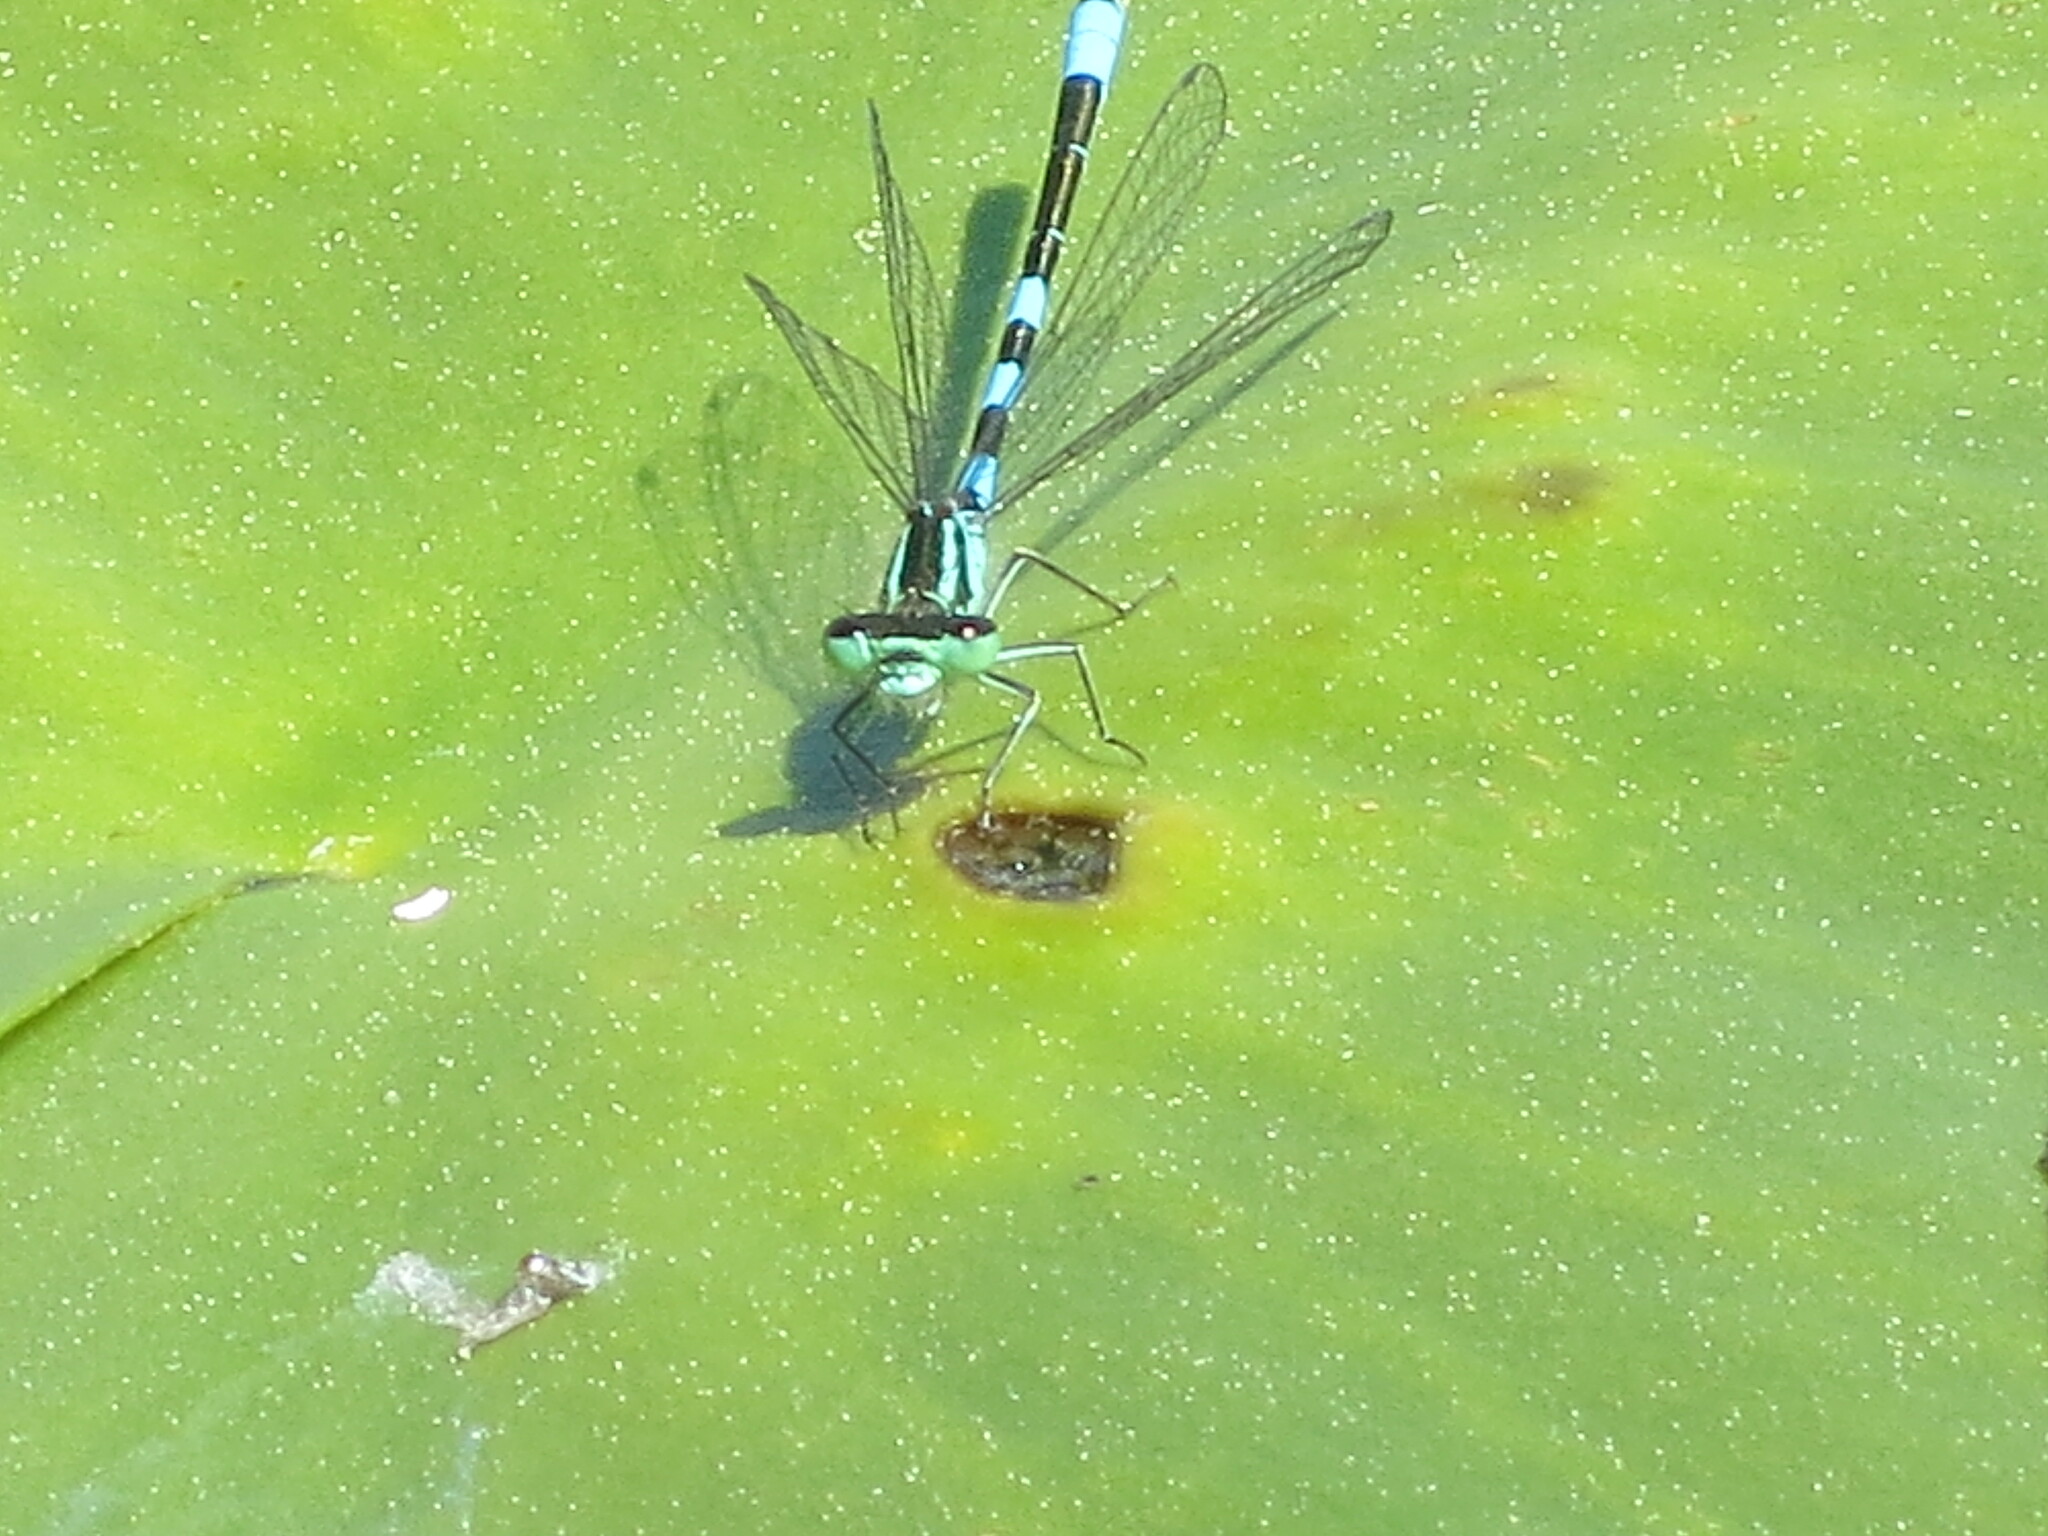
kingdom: Animalia
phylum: Arthropoda
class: Insecta
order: Odonata
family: Coenagrionidae
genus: Coenagrion
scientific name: Coenagrion resolutum
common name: Taiga bluet
